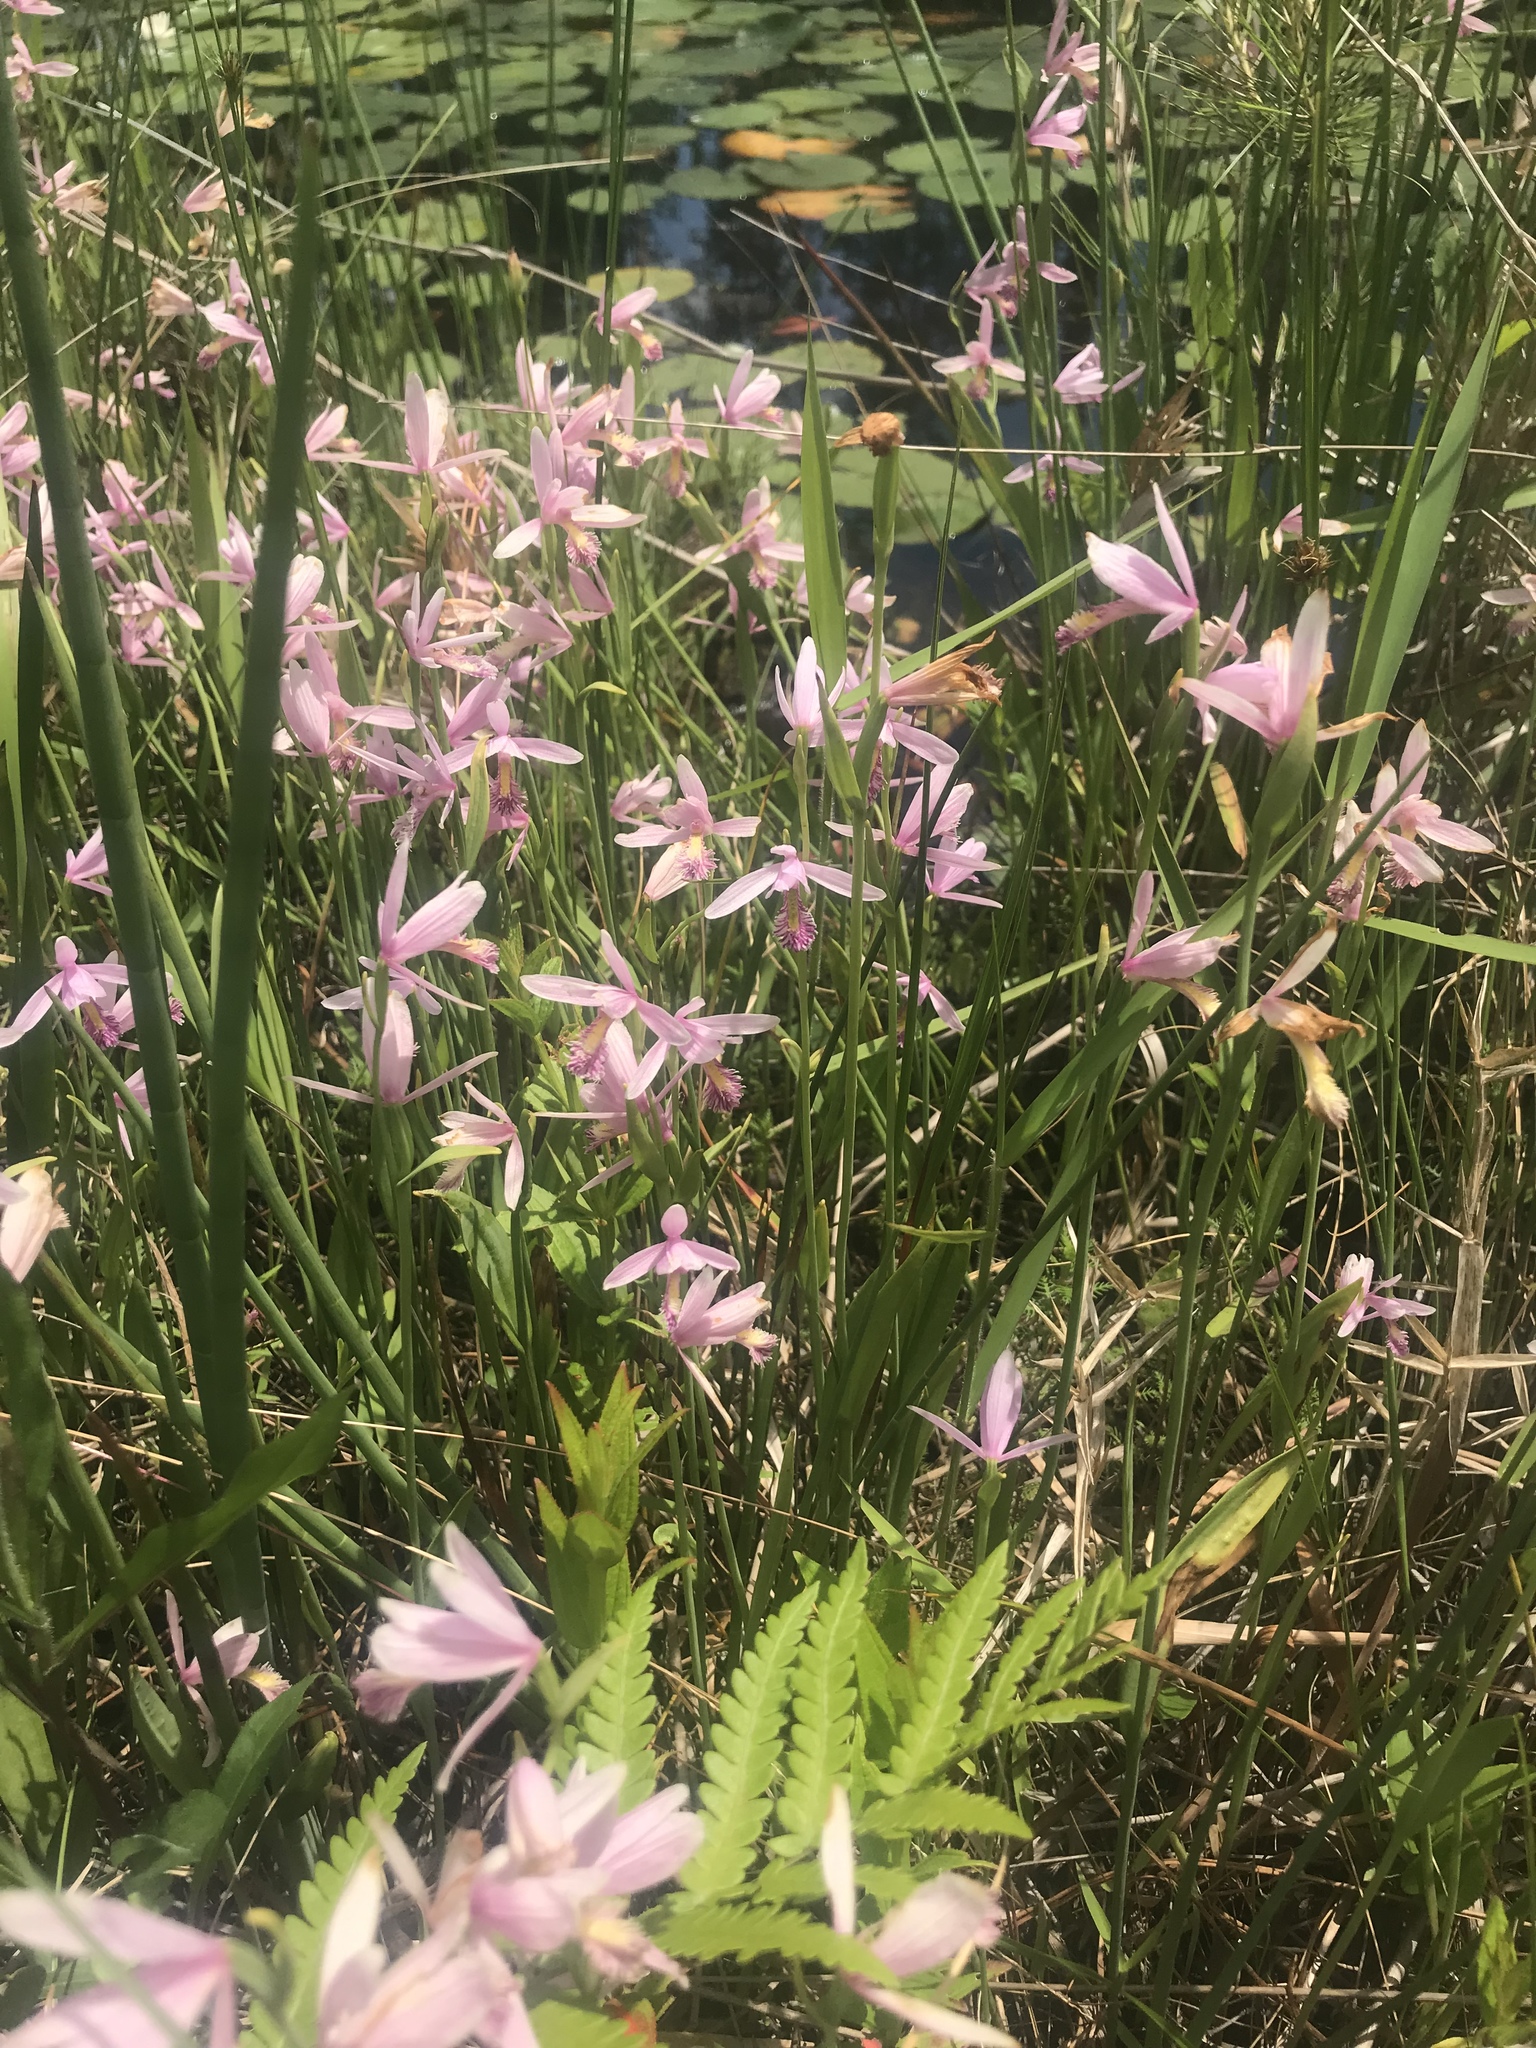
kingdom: Plantae
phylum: Tracheophyta
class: Liliopsida
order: Asparagales
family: Orchidaceae
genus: Pogonia
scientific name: Pogonia ophioglossoides
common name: Rose pogonia
